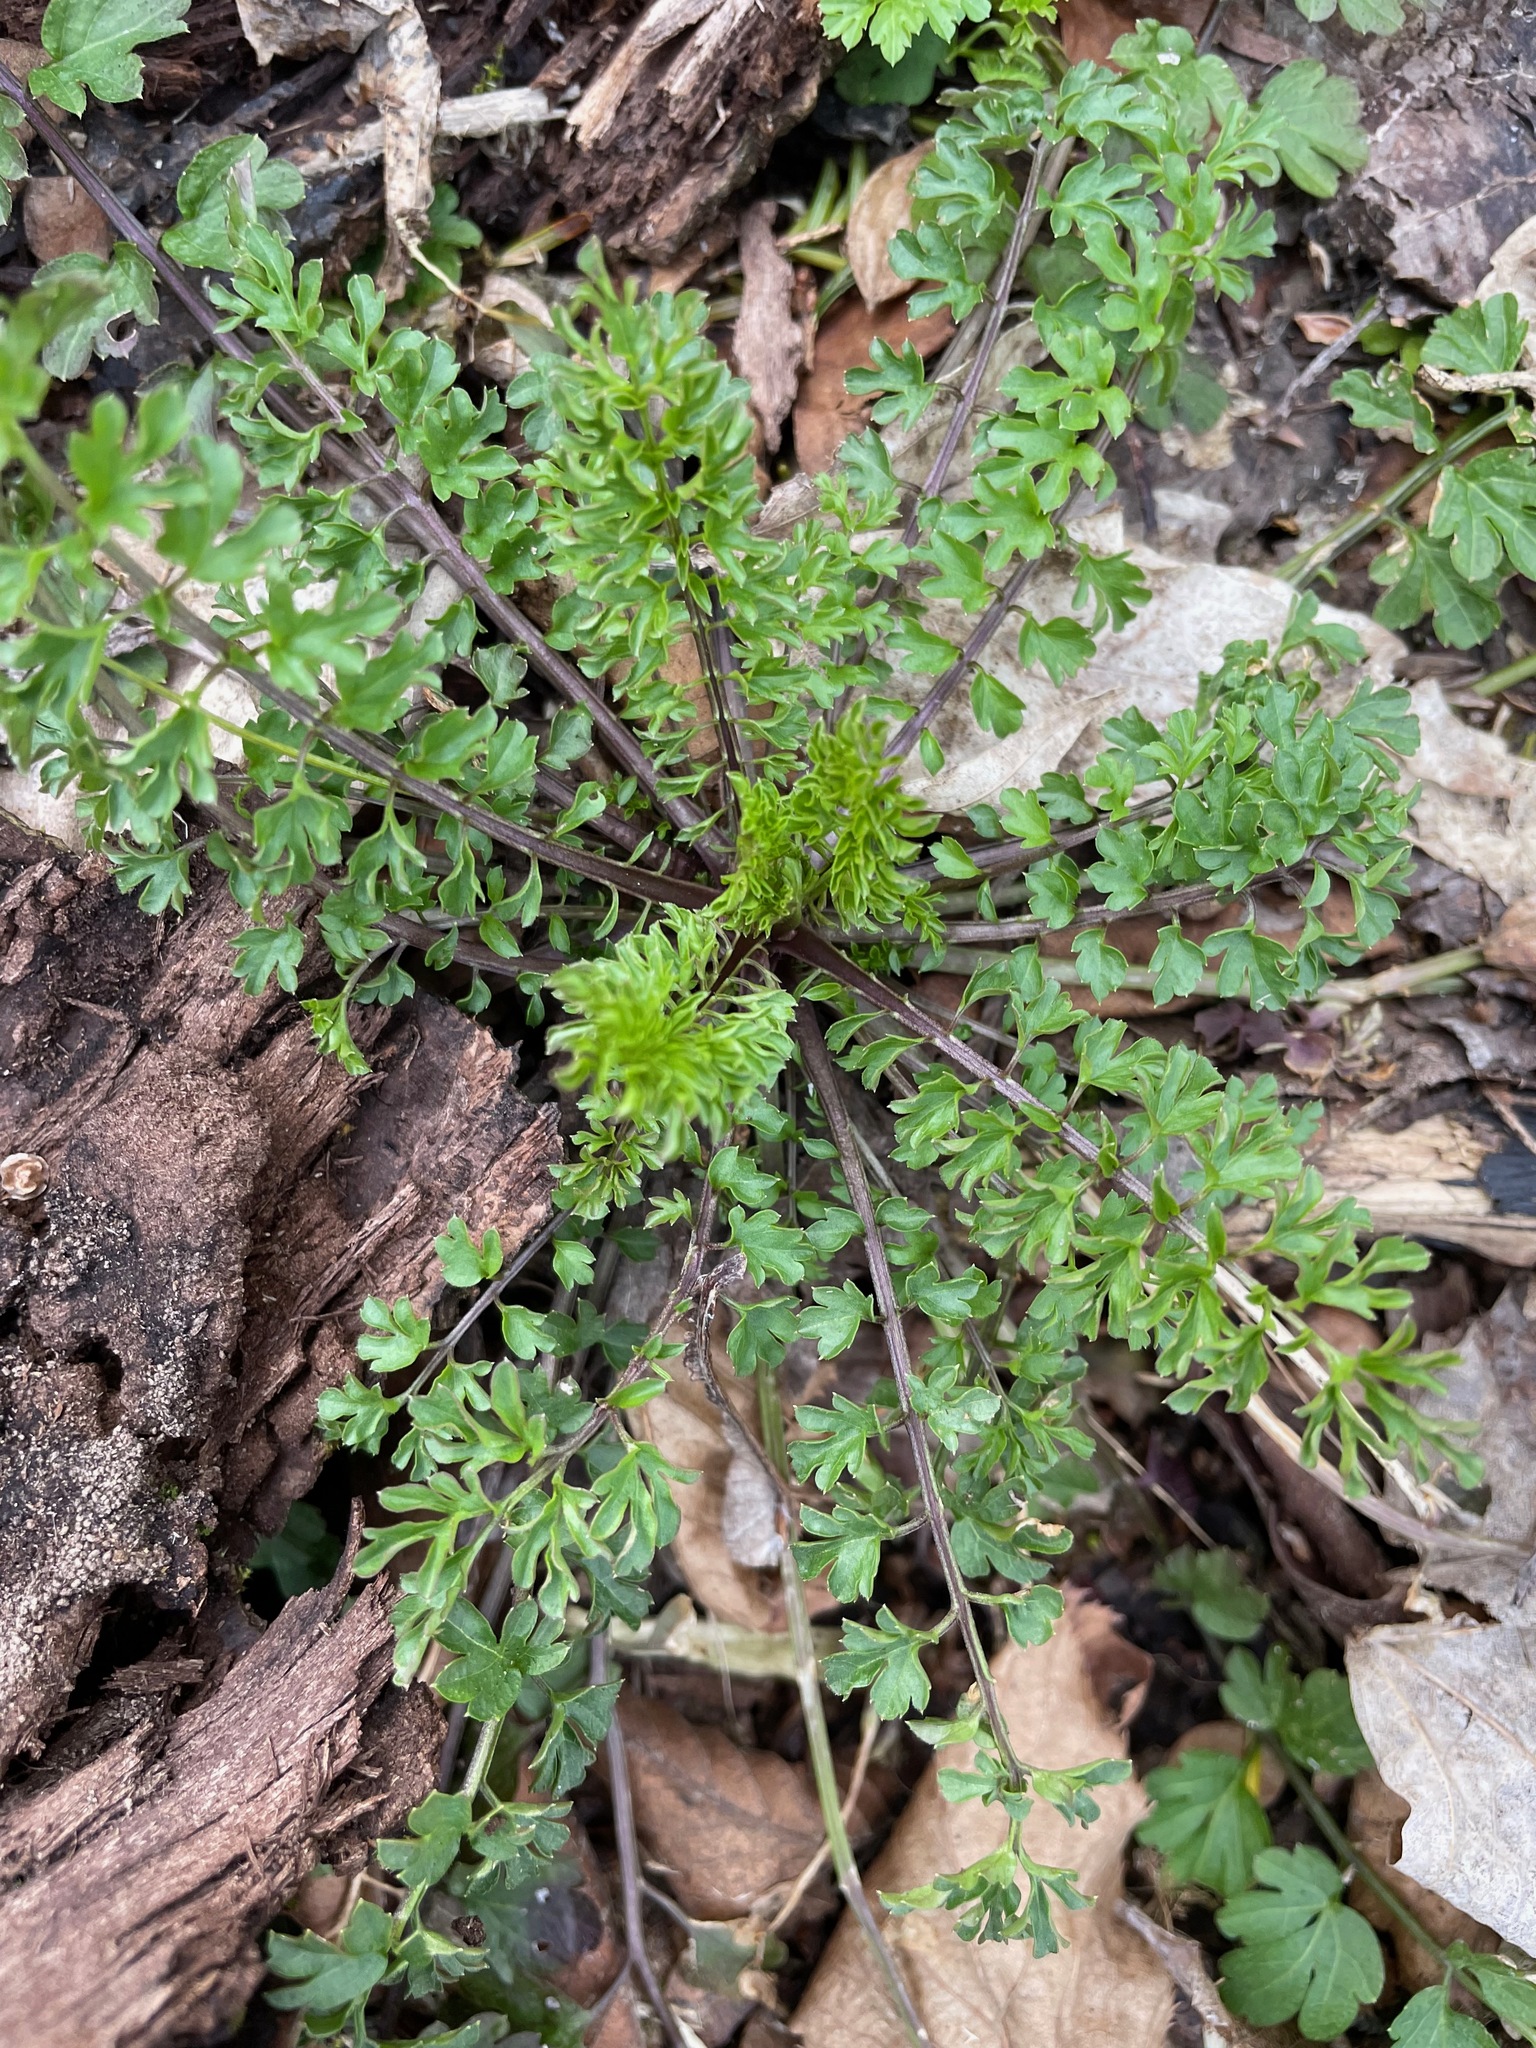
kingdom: Plantae
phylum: Tracheophyta
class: Magnoliopsida
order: Brassicales
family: Brassicaceae
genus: Cardamine
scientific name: Cardamine impatiens
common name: Narrow-leaved bitter-cress
